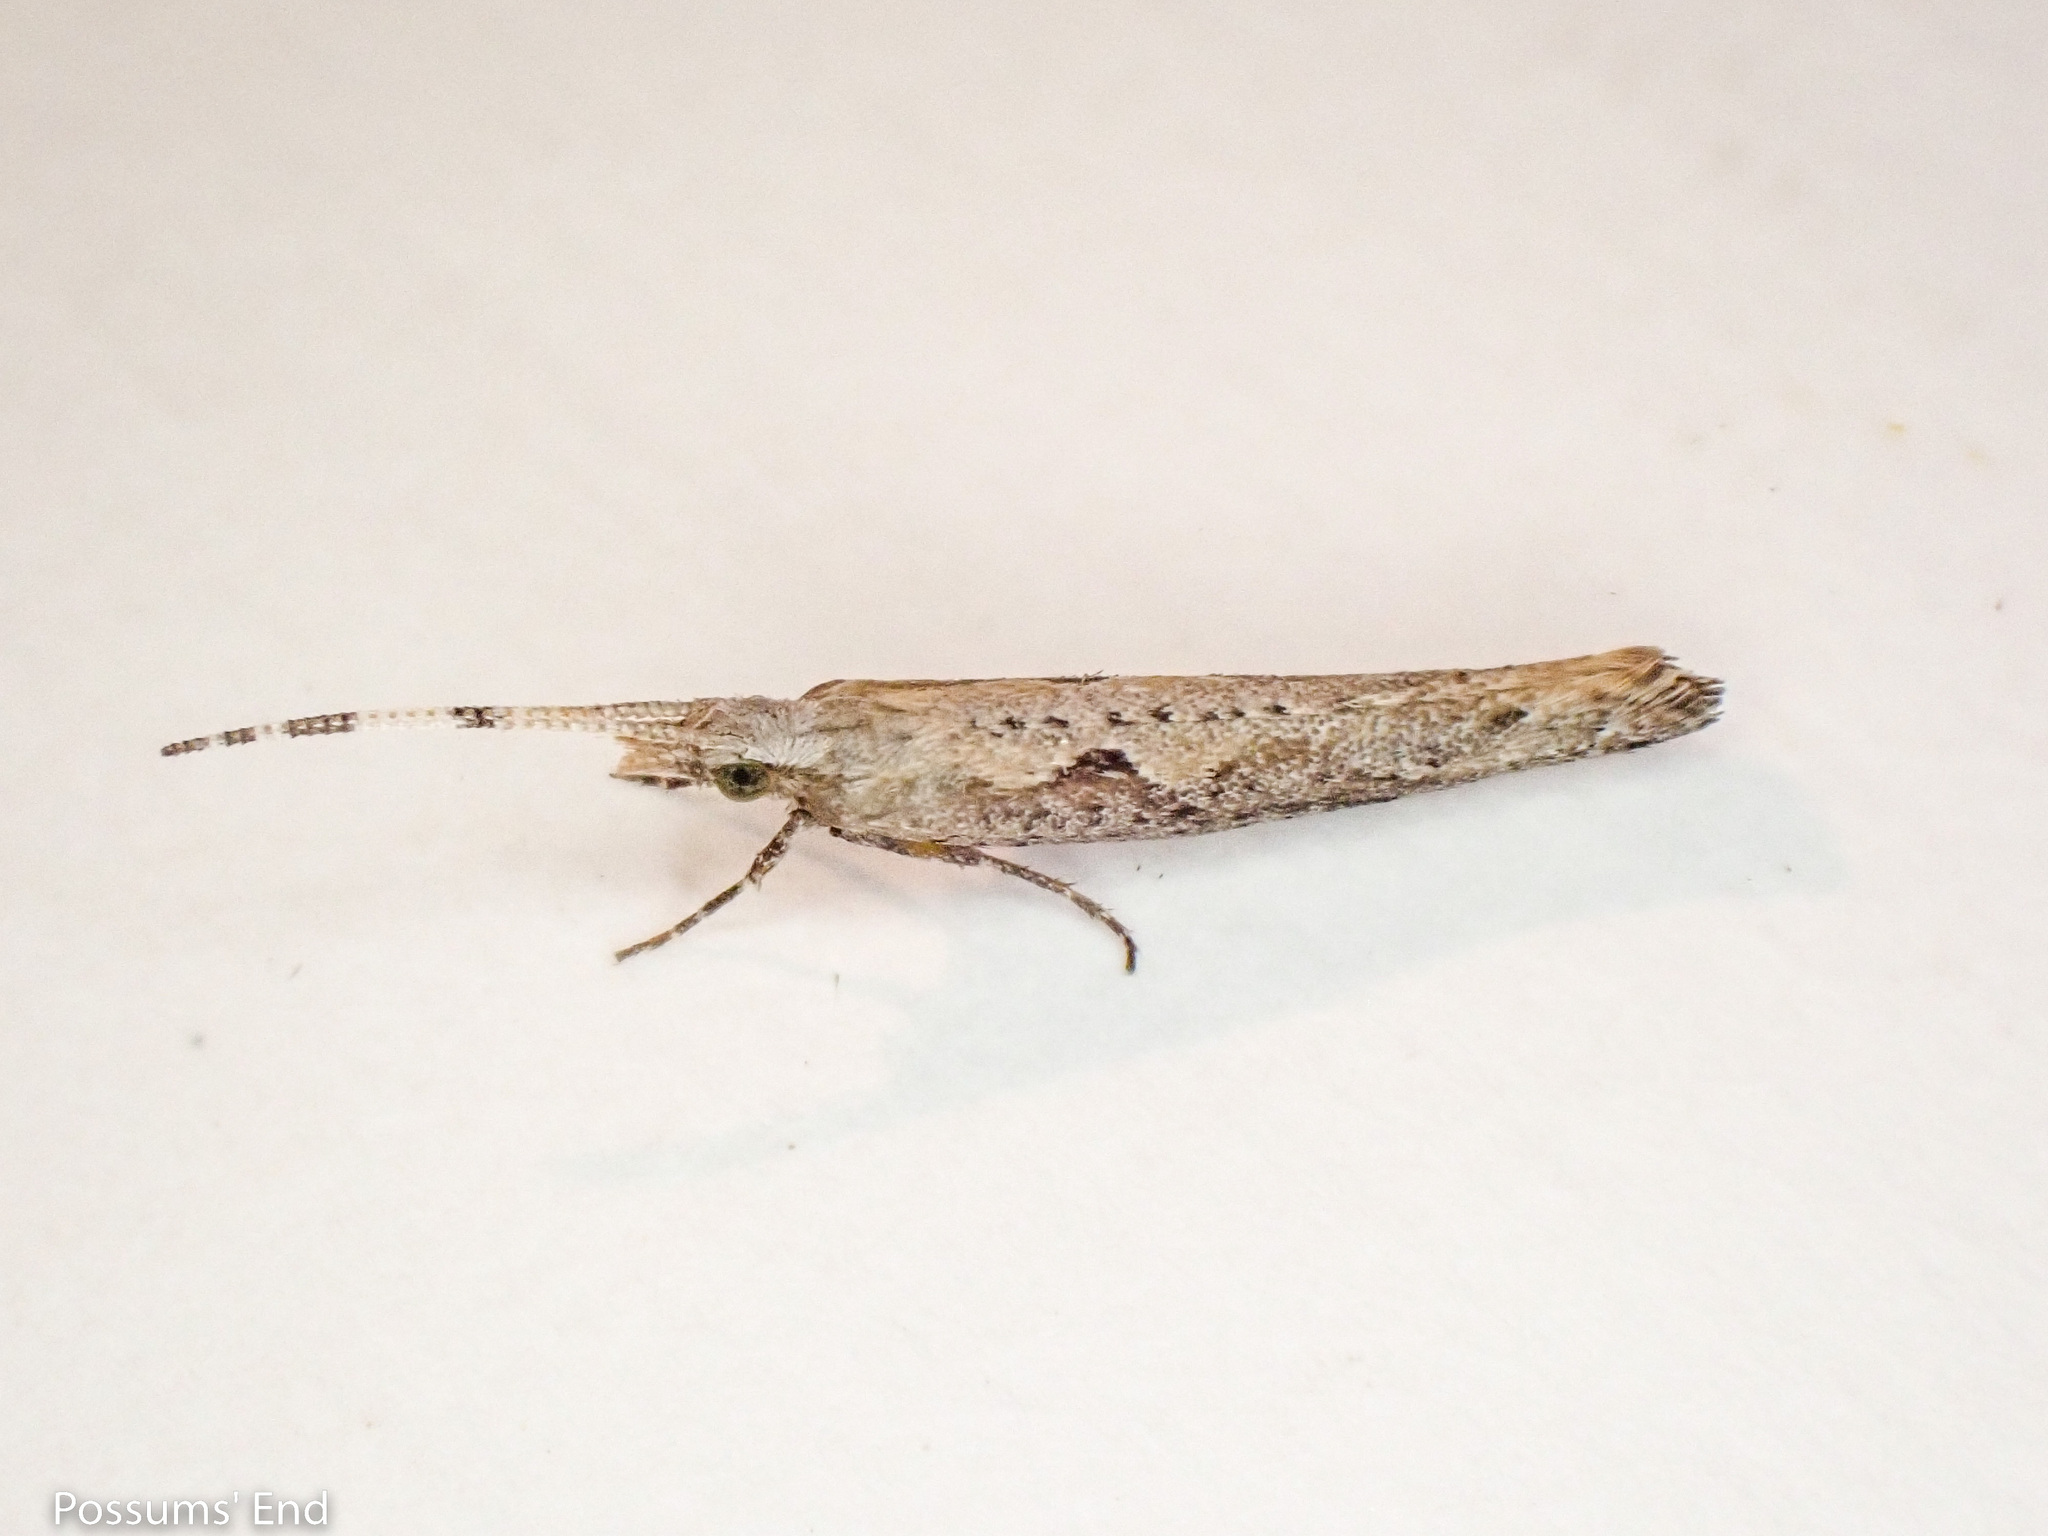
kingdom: Animalia
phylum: Arthropoda
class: Insecta
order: Lepidoptera
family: Plutellidae
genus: Plutella
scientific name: Plutella xylostella
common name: Diamond-back moth
